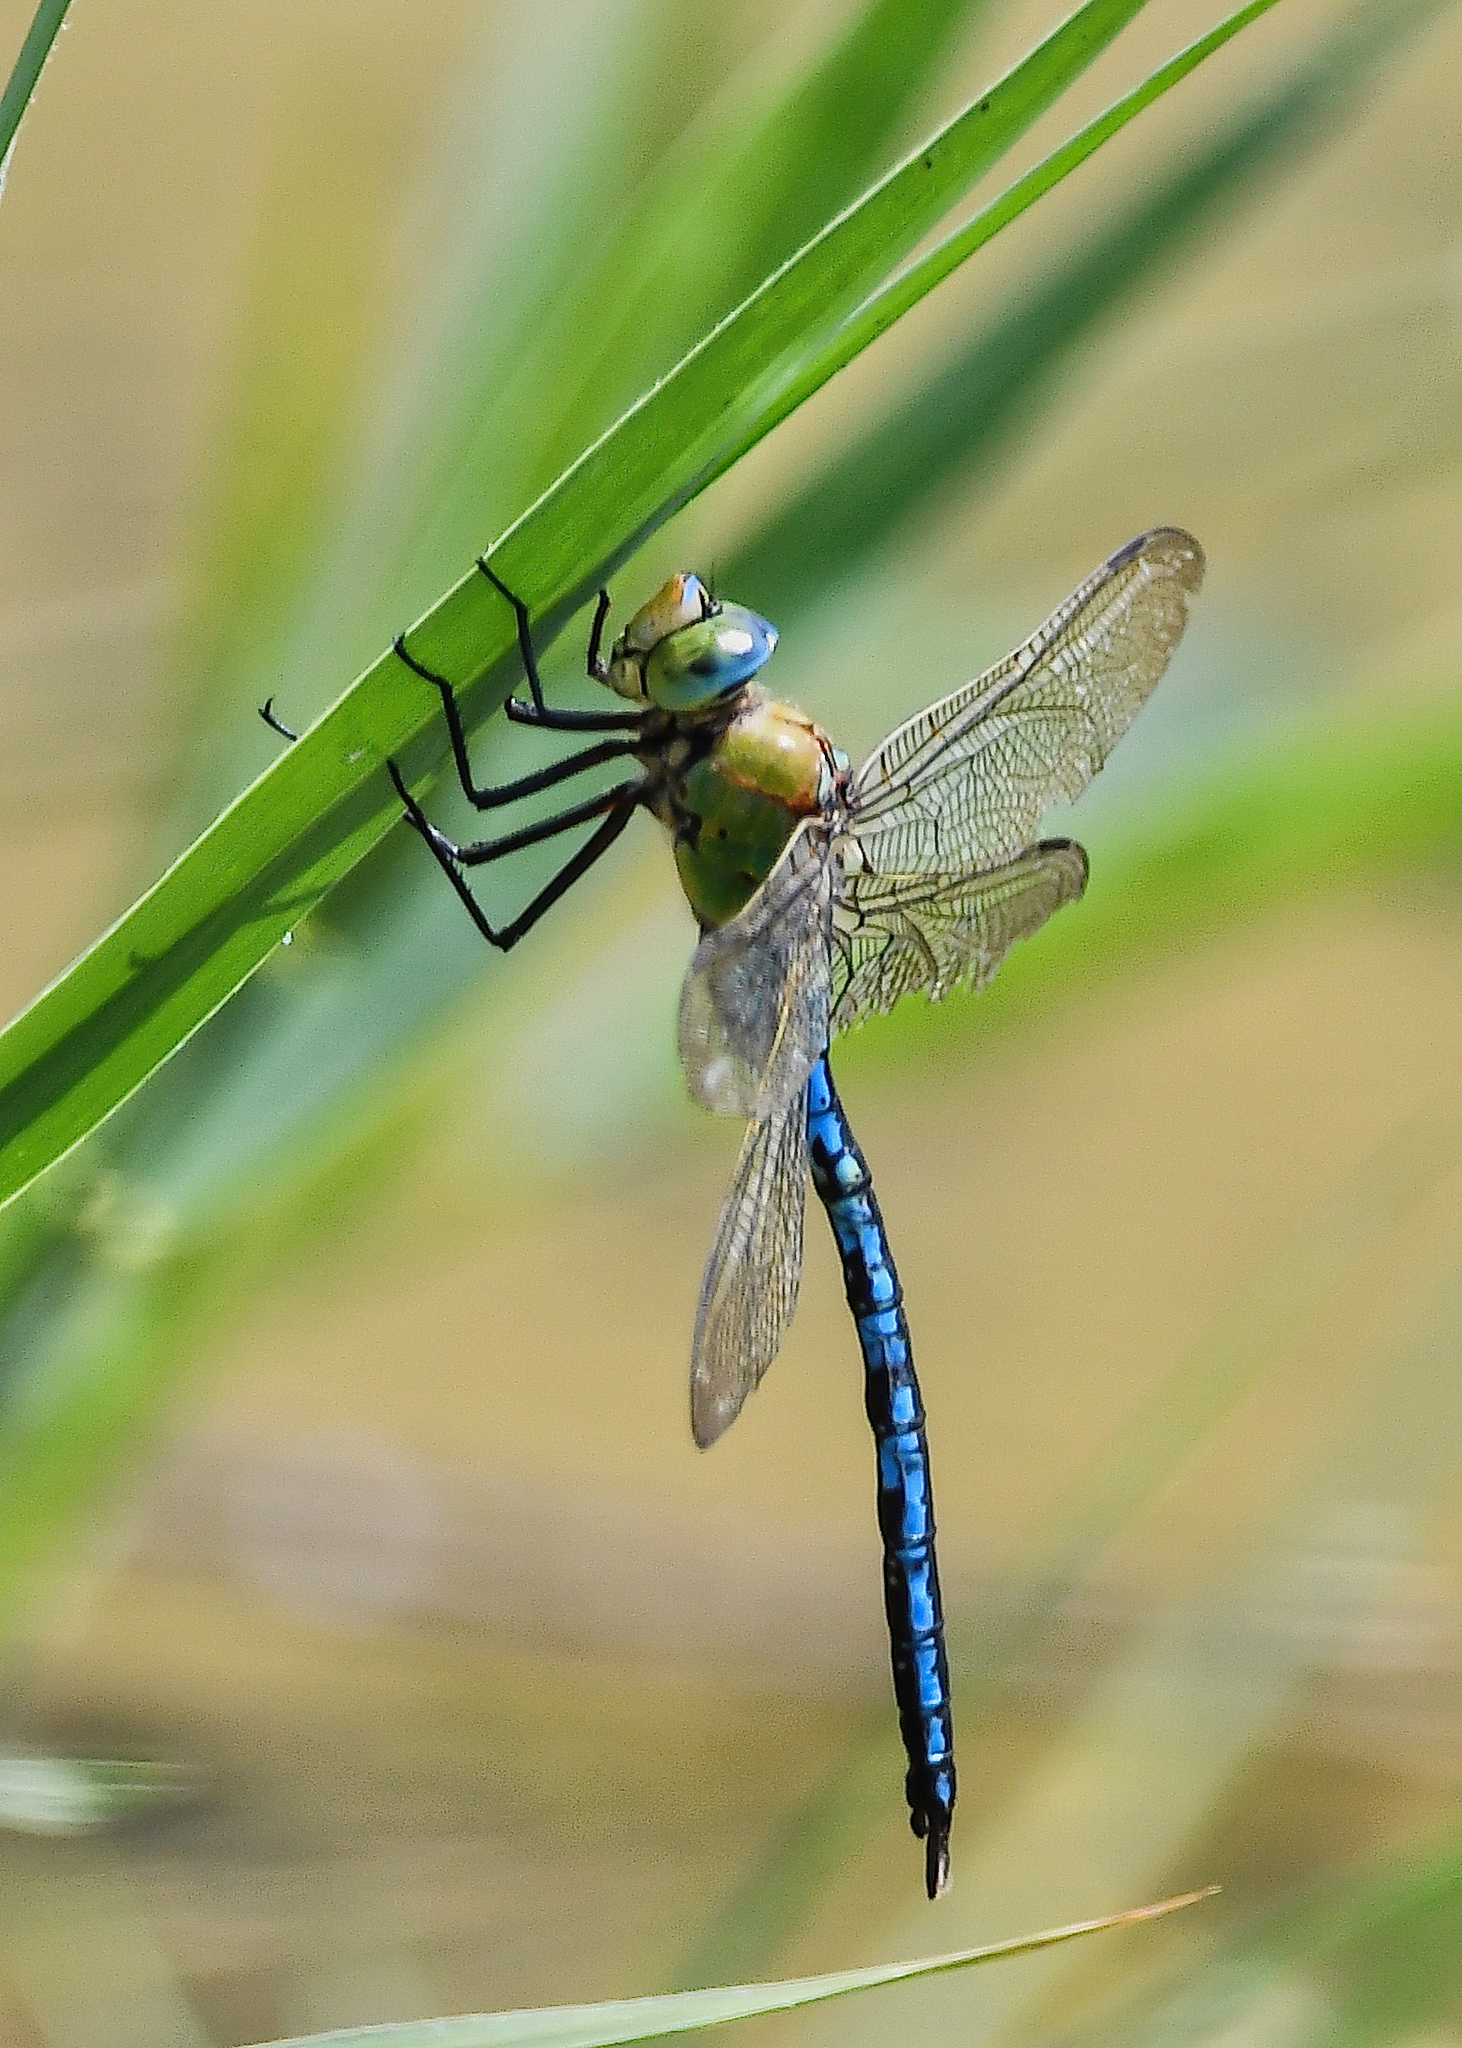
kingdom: Animalia
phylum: Arthropoda
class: Insecta
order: Odonata
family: Aeshnidae
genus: Anax
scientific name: Anax imperator
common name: Emperor dragonfly
